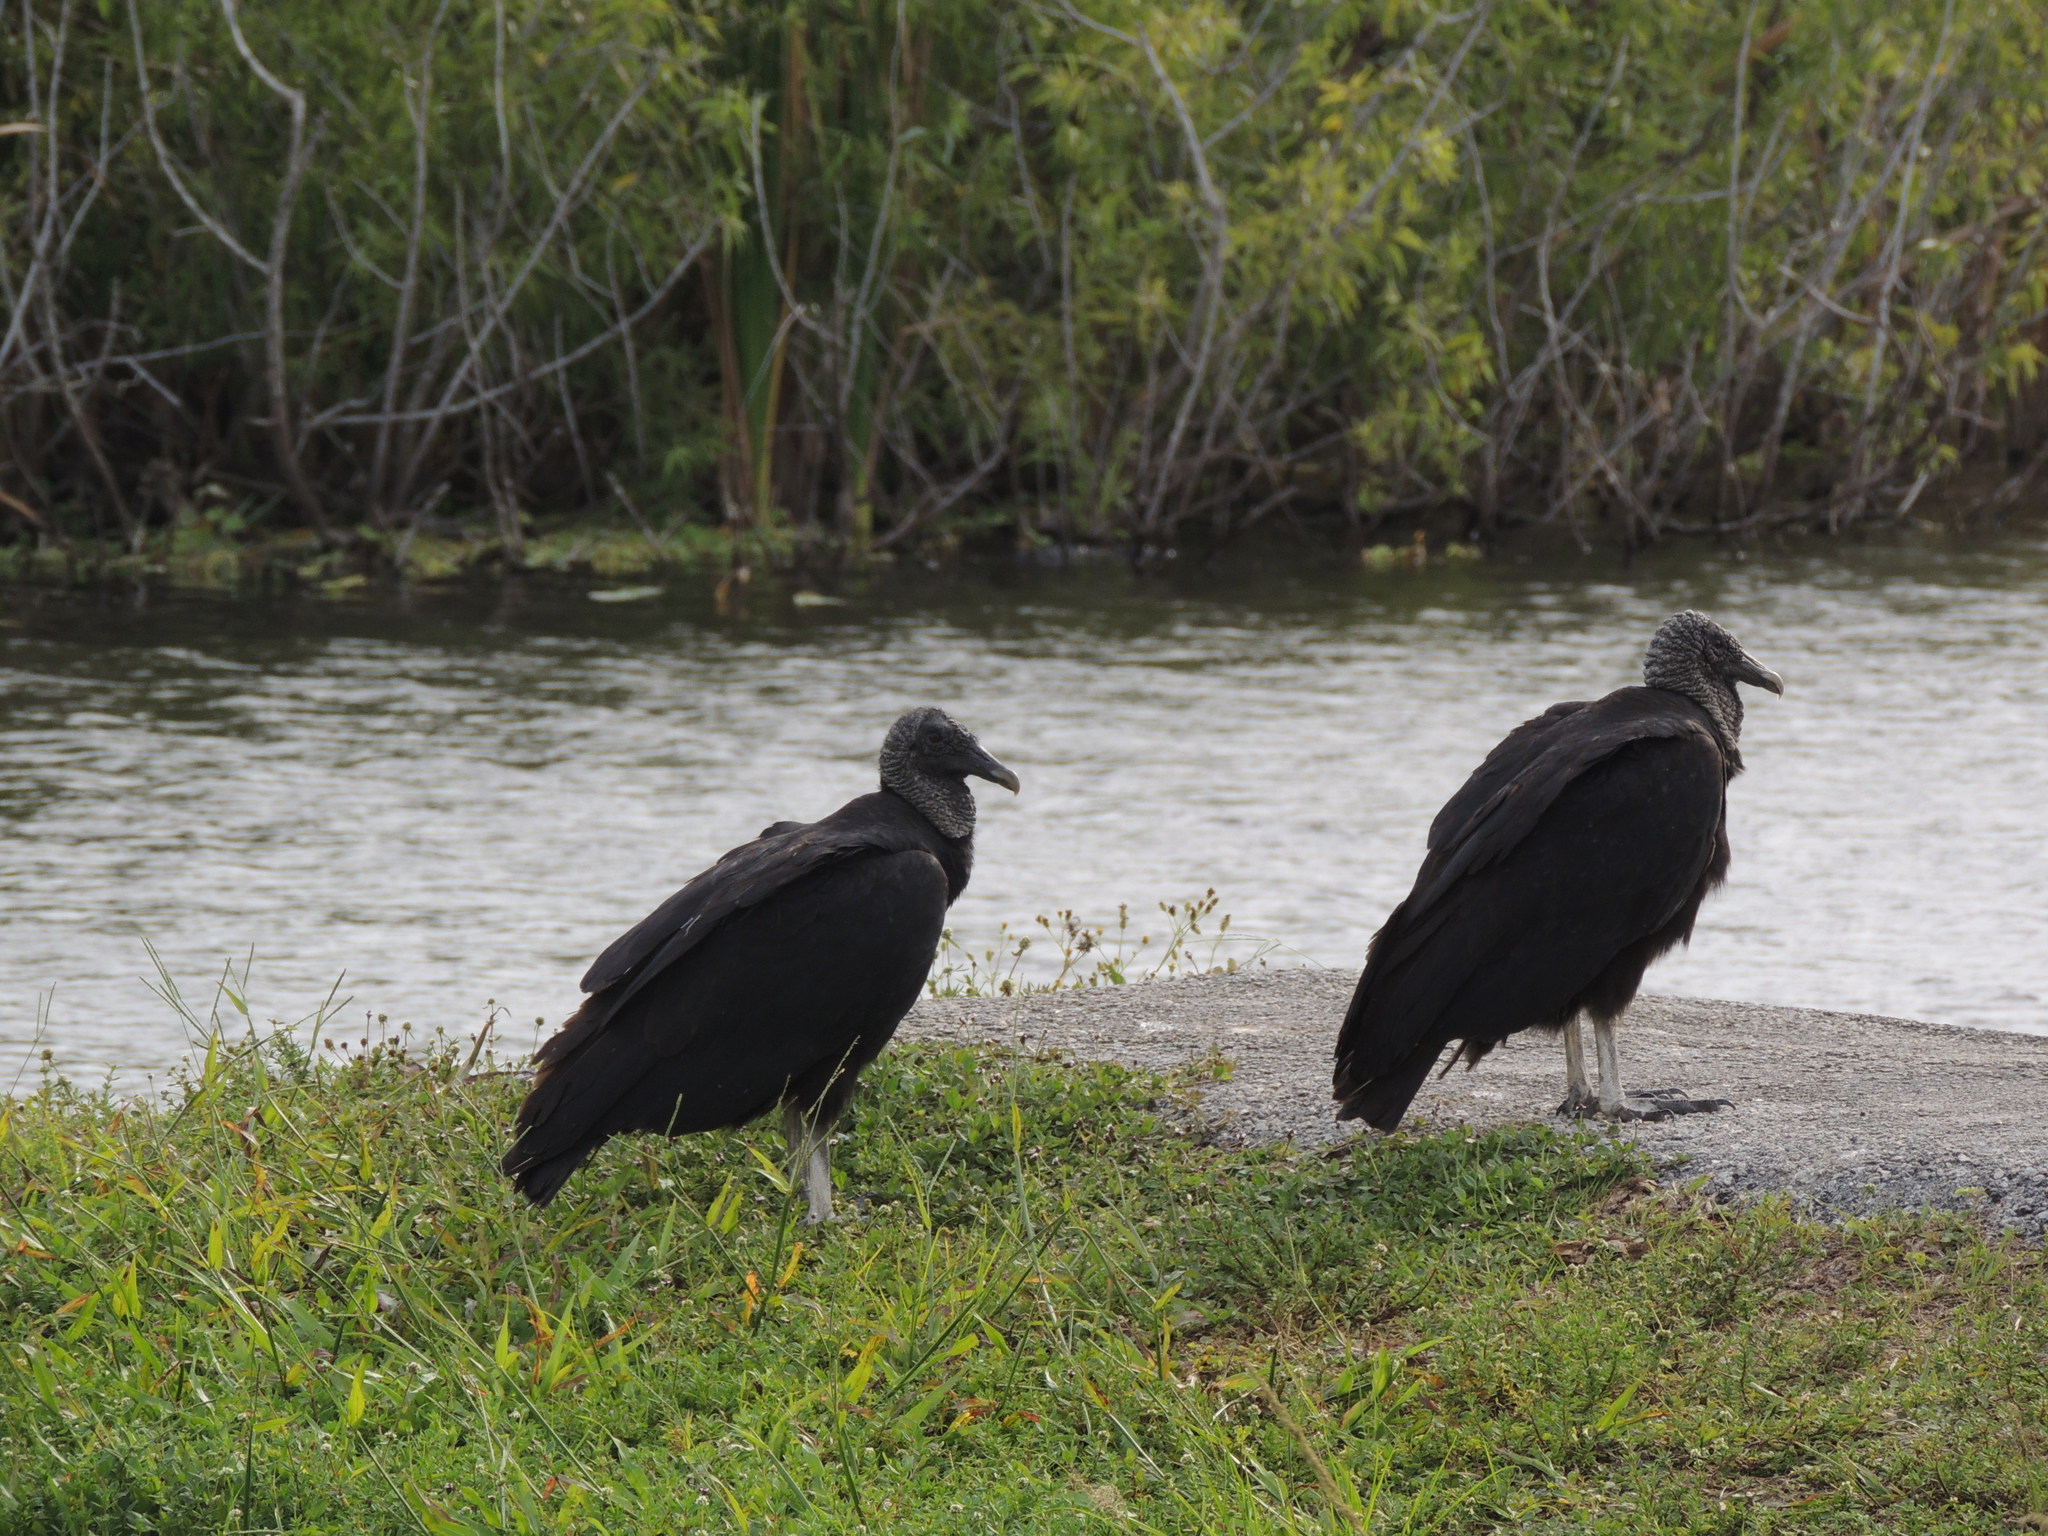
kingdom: Animalia
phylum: Chordata
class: Aves
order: Accipitriformes
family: Cathartidae
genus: Coragyps
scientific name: Coragyps atratus
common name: Black vulture
